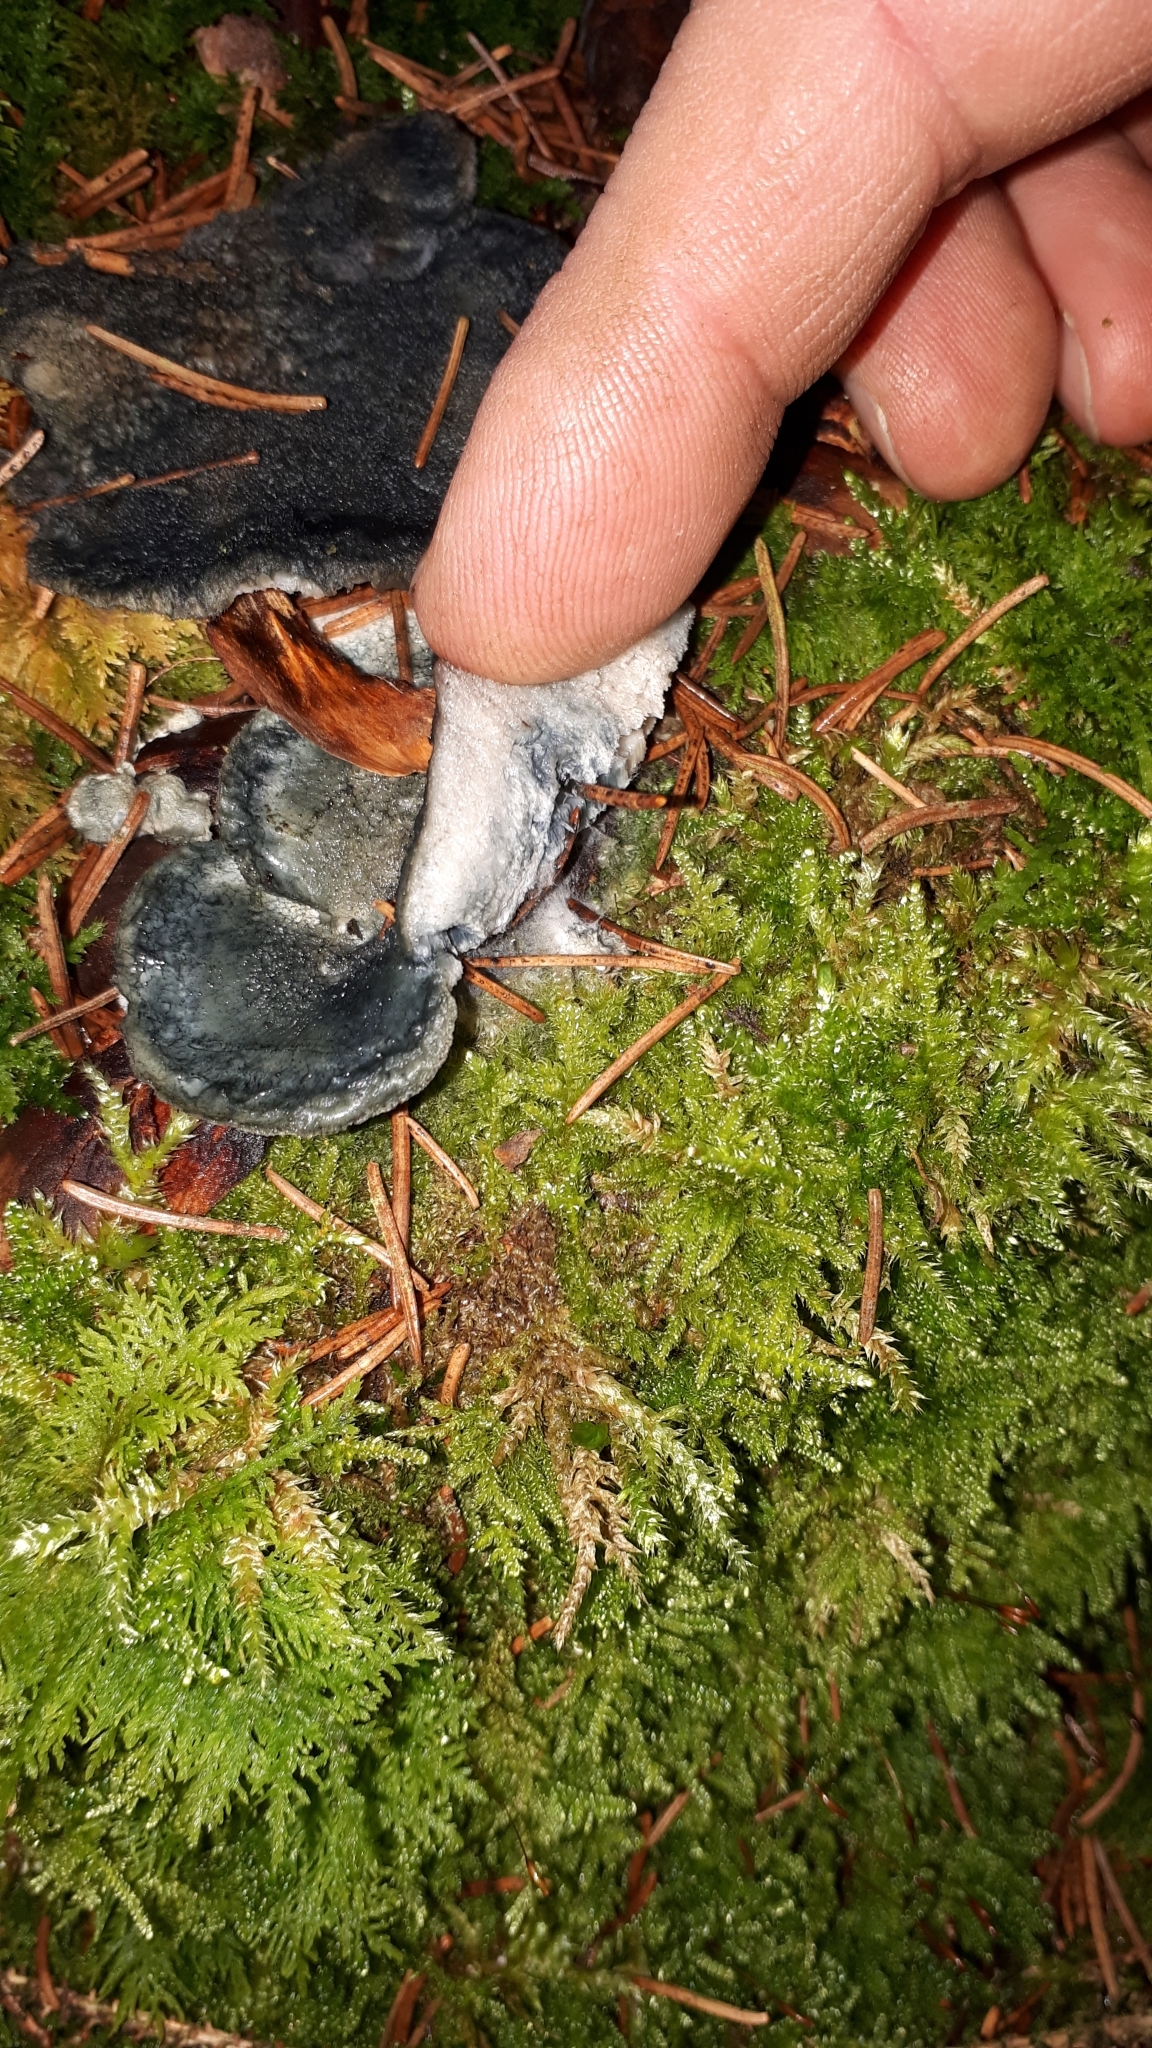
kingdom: Fungi
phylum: Basidiomycota
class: Agaricomycetes
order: Polyporales
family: Polyporaceae
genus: Cyanosporus
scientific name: Cyanosporus caesius
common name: Blue cheese polypore
